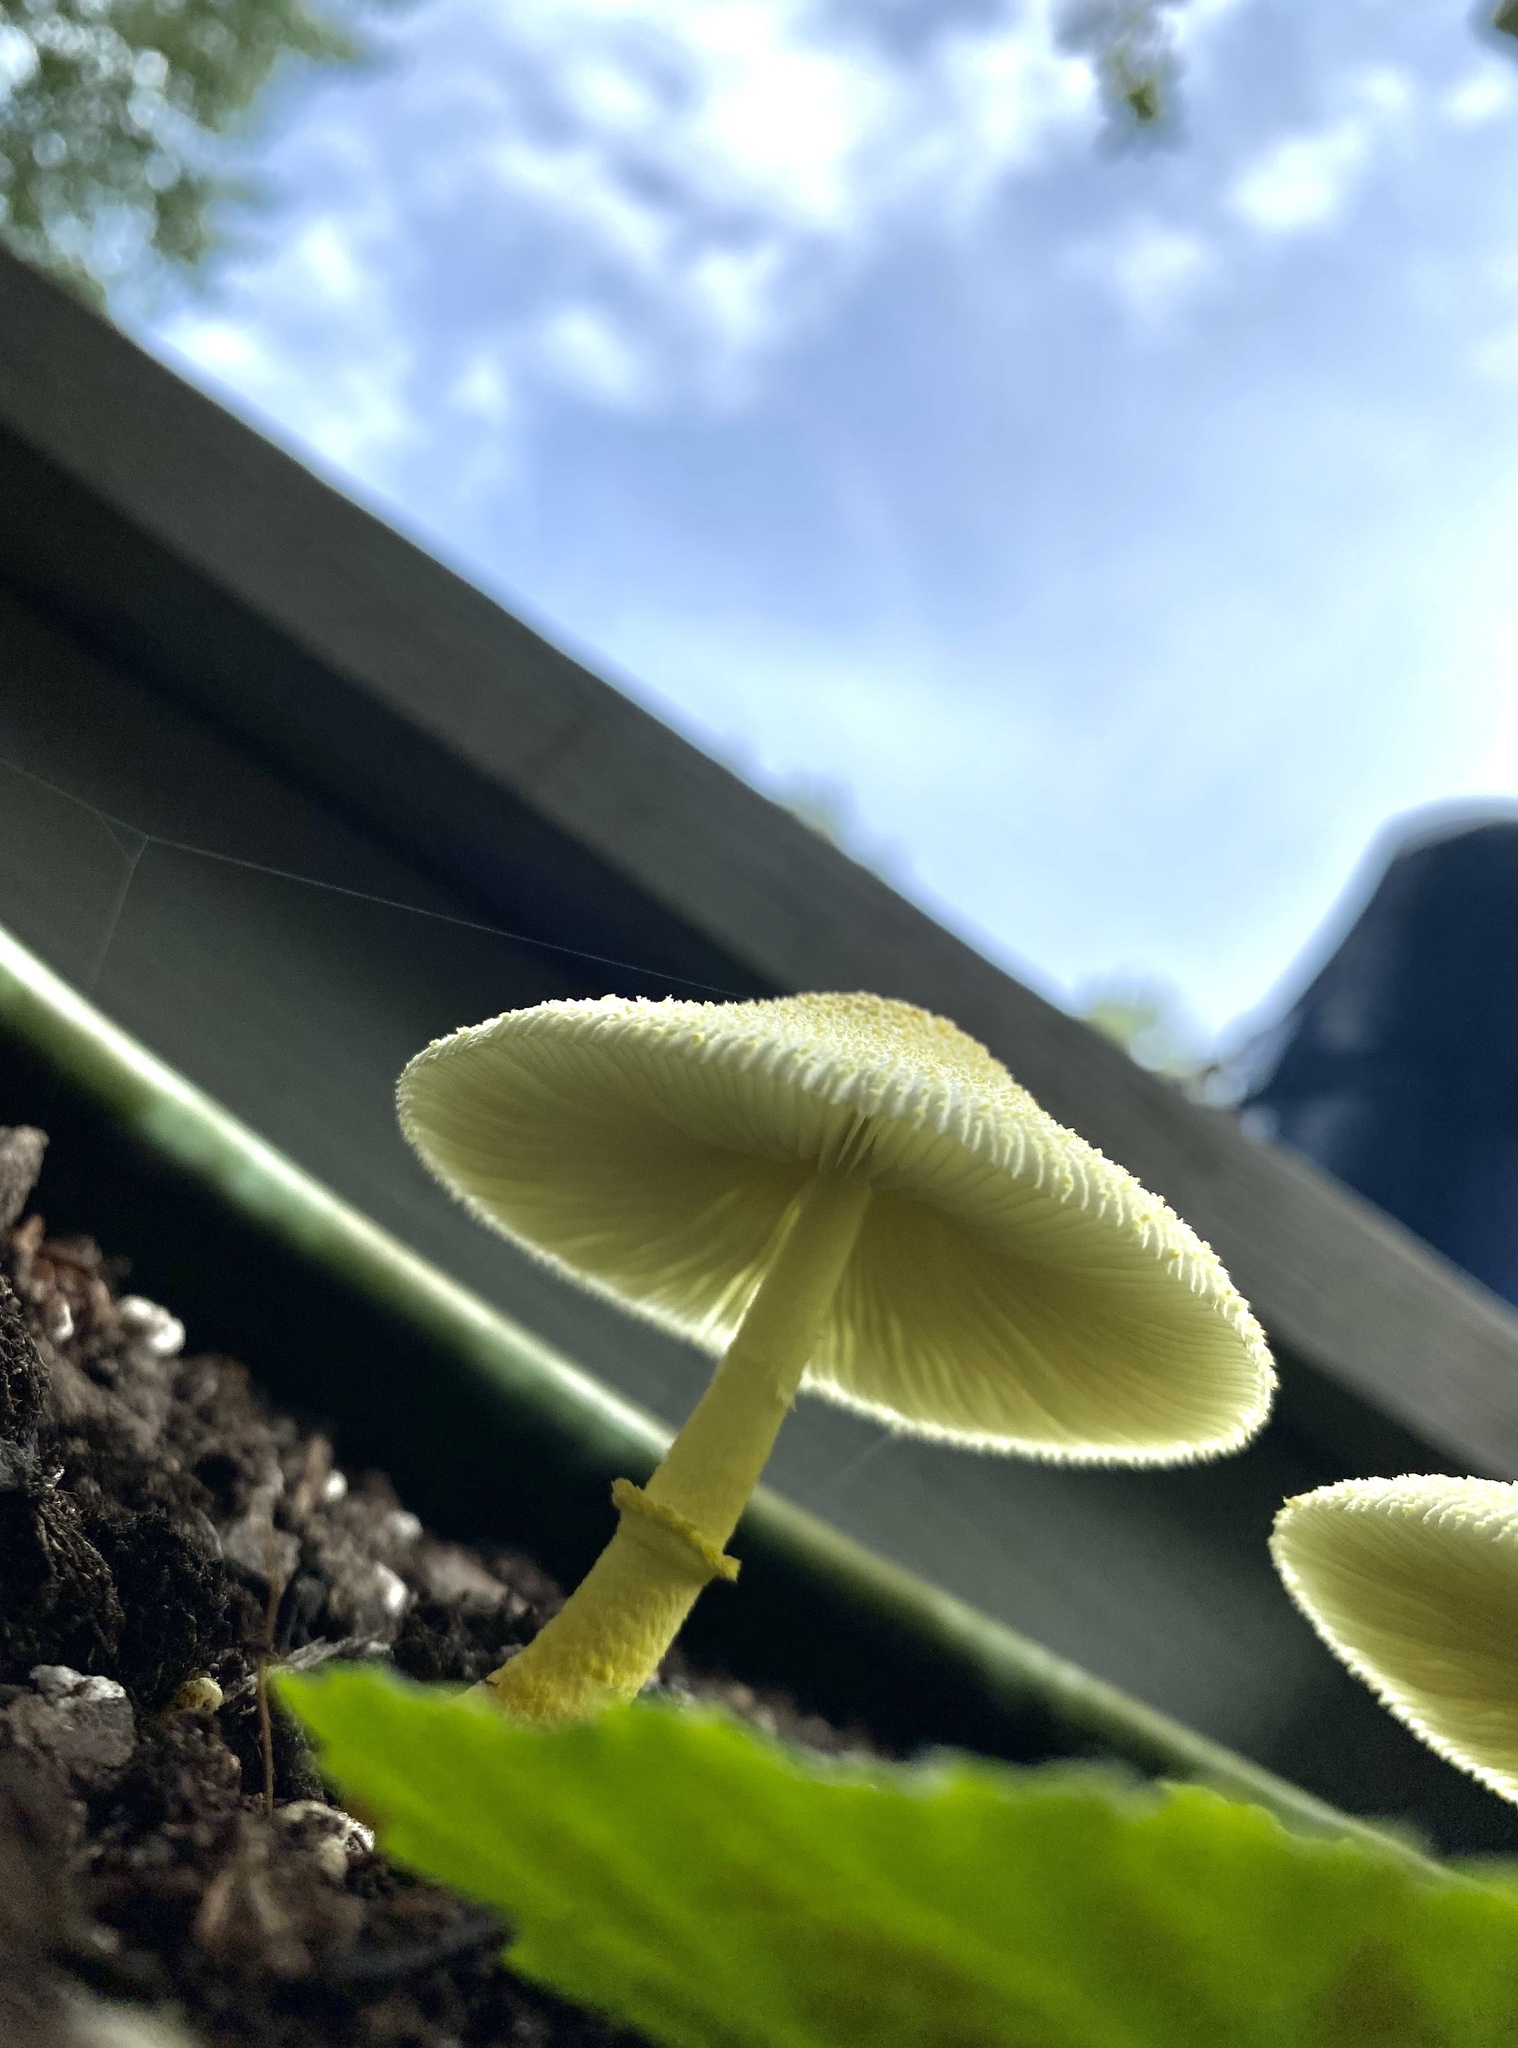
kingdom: Fungi
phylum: Basidiomycota
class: Agaricomycetes
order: Agaricales
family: Agaricaceae
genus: Leucocoprinus
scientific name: Leucocoprinus birnbaumii
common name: Plantpot dapperling
